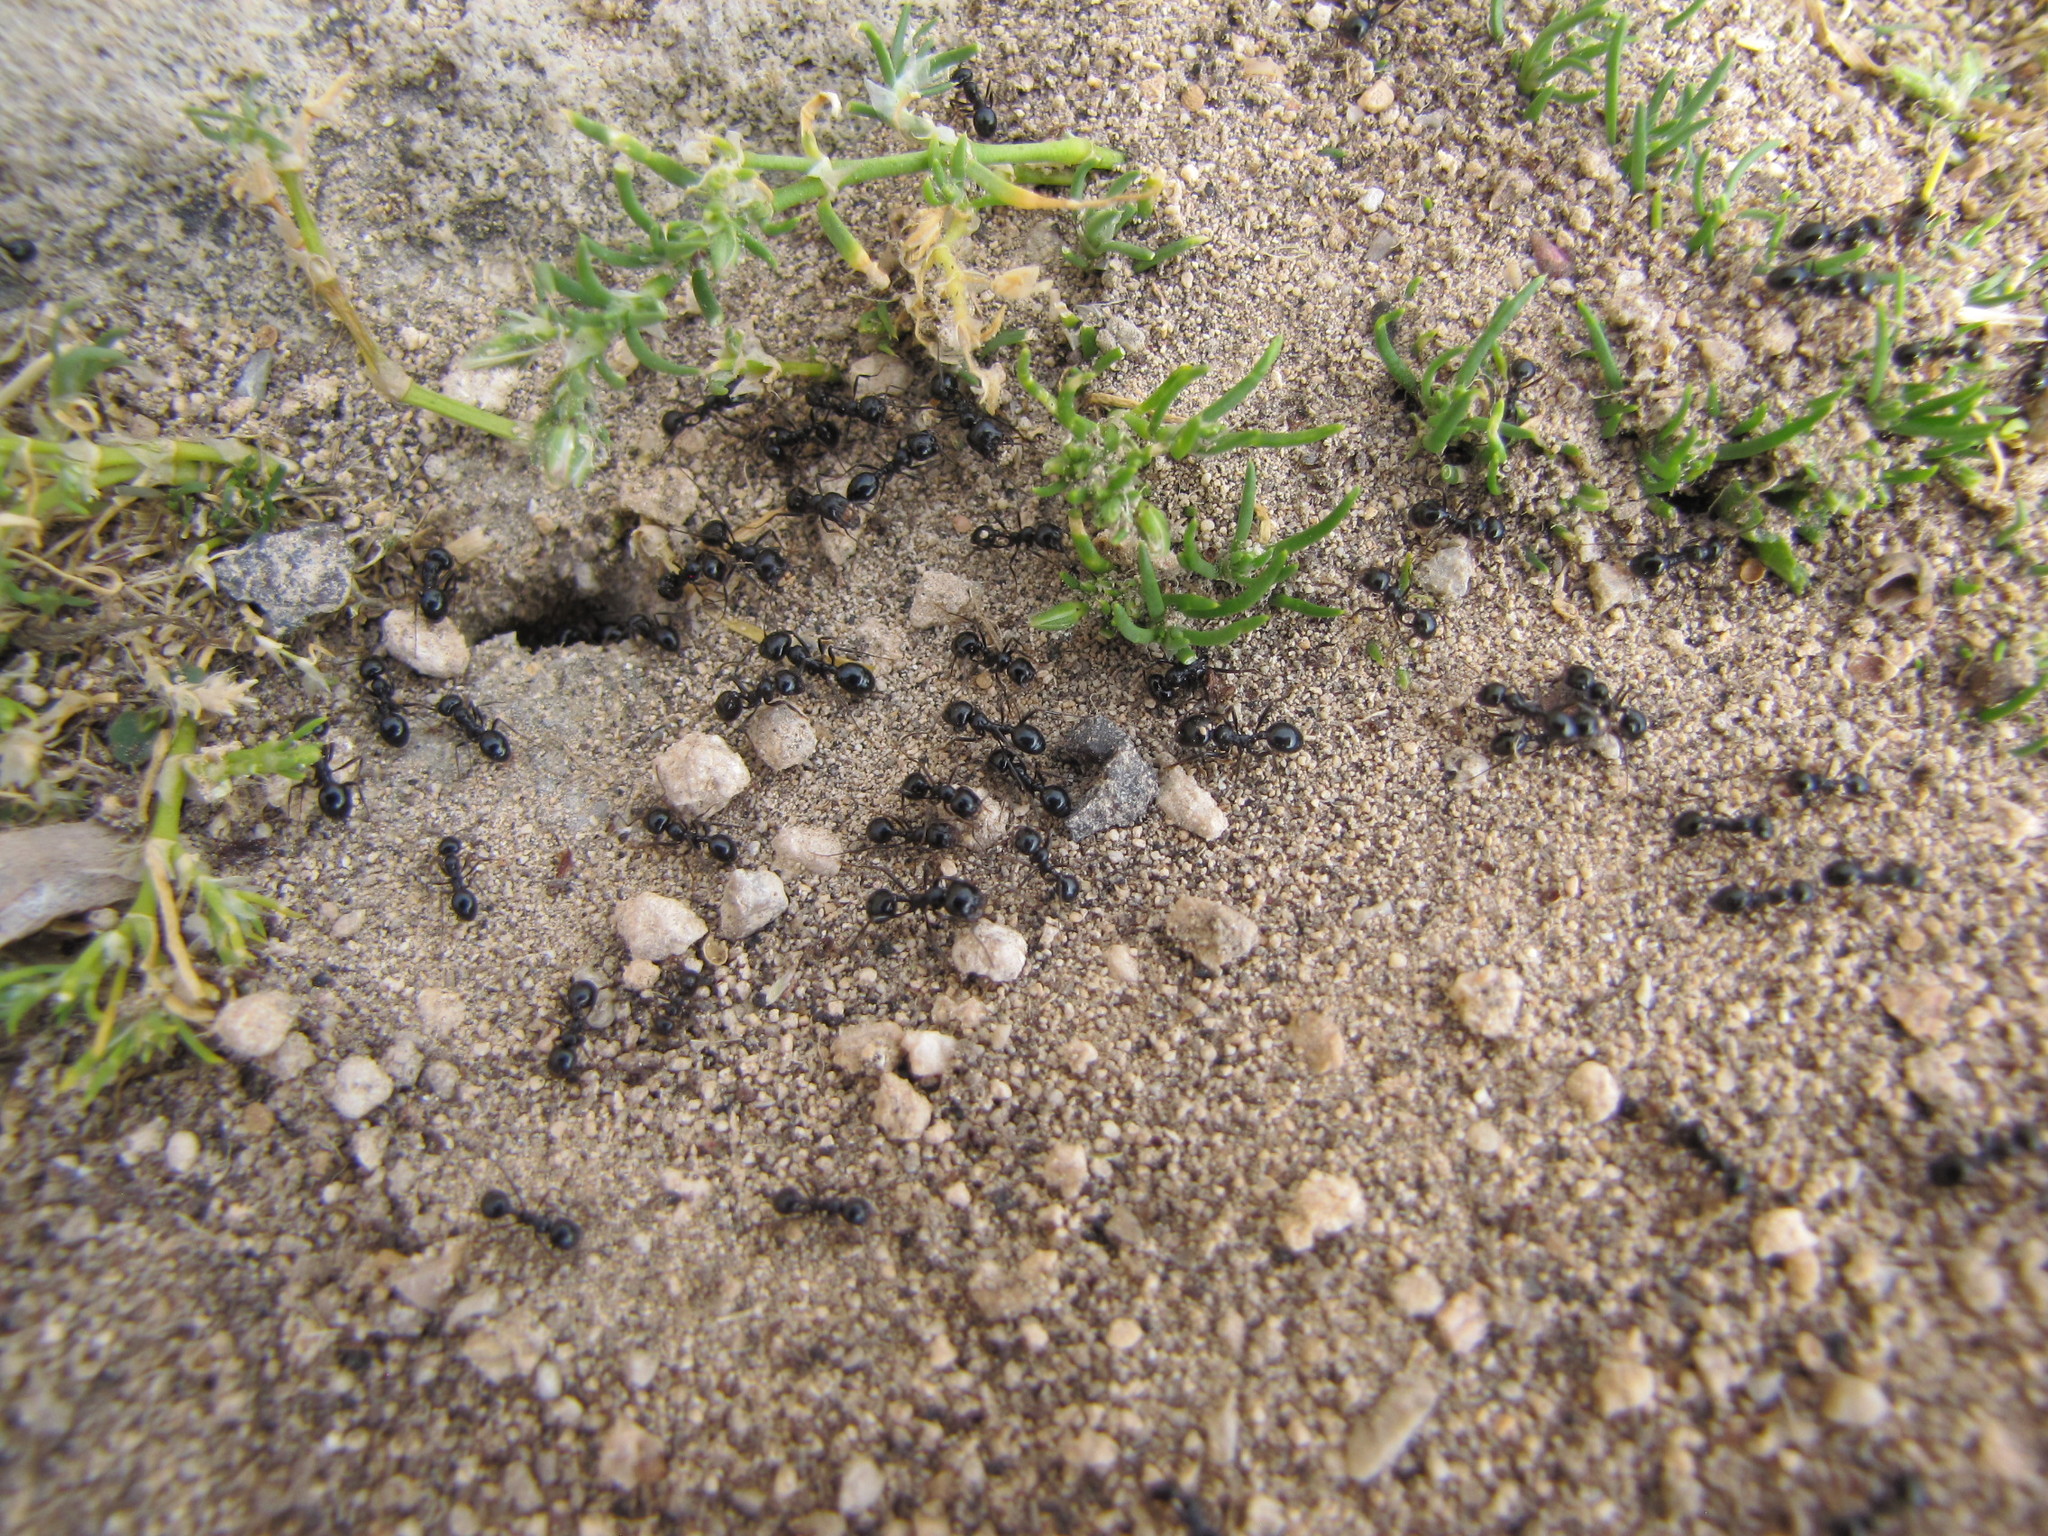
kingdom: Animalia
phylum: Arthropoda
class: Insecta
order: Hymenoptera
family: Formicidae
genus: Messor
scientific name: Messor bouvieri
